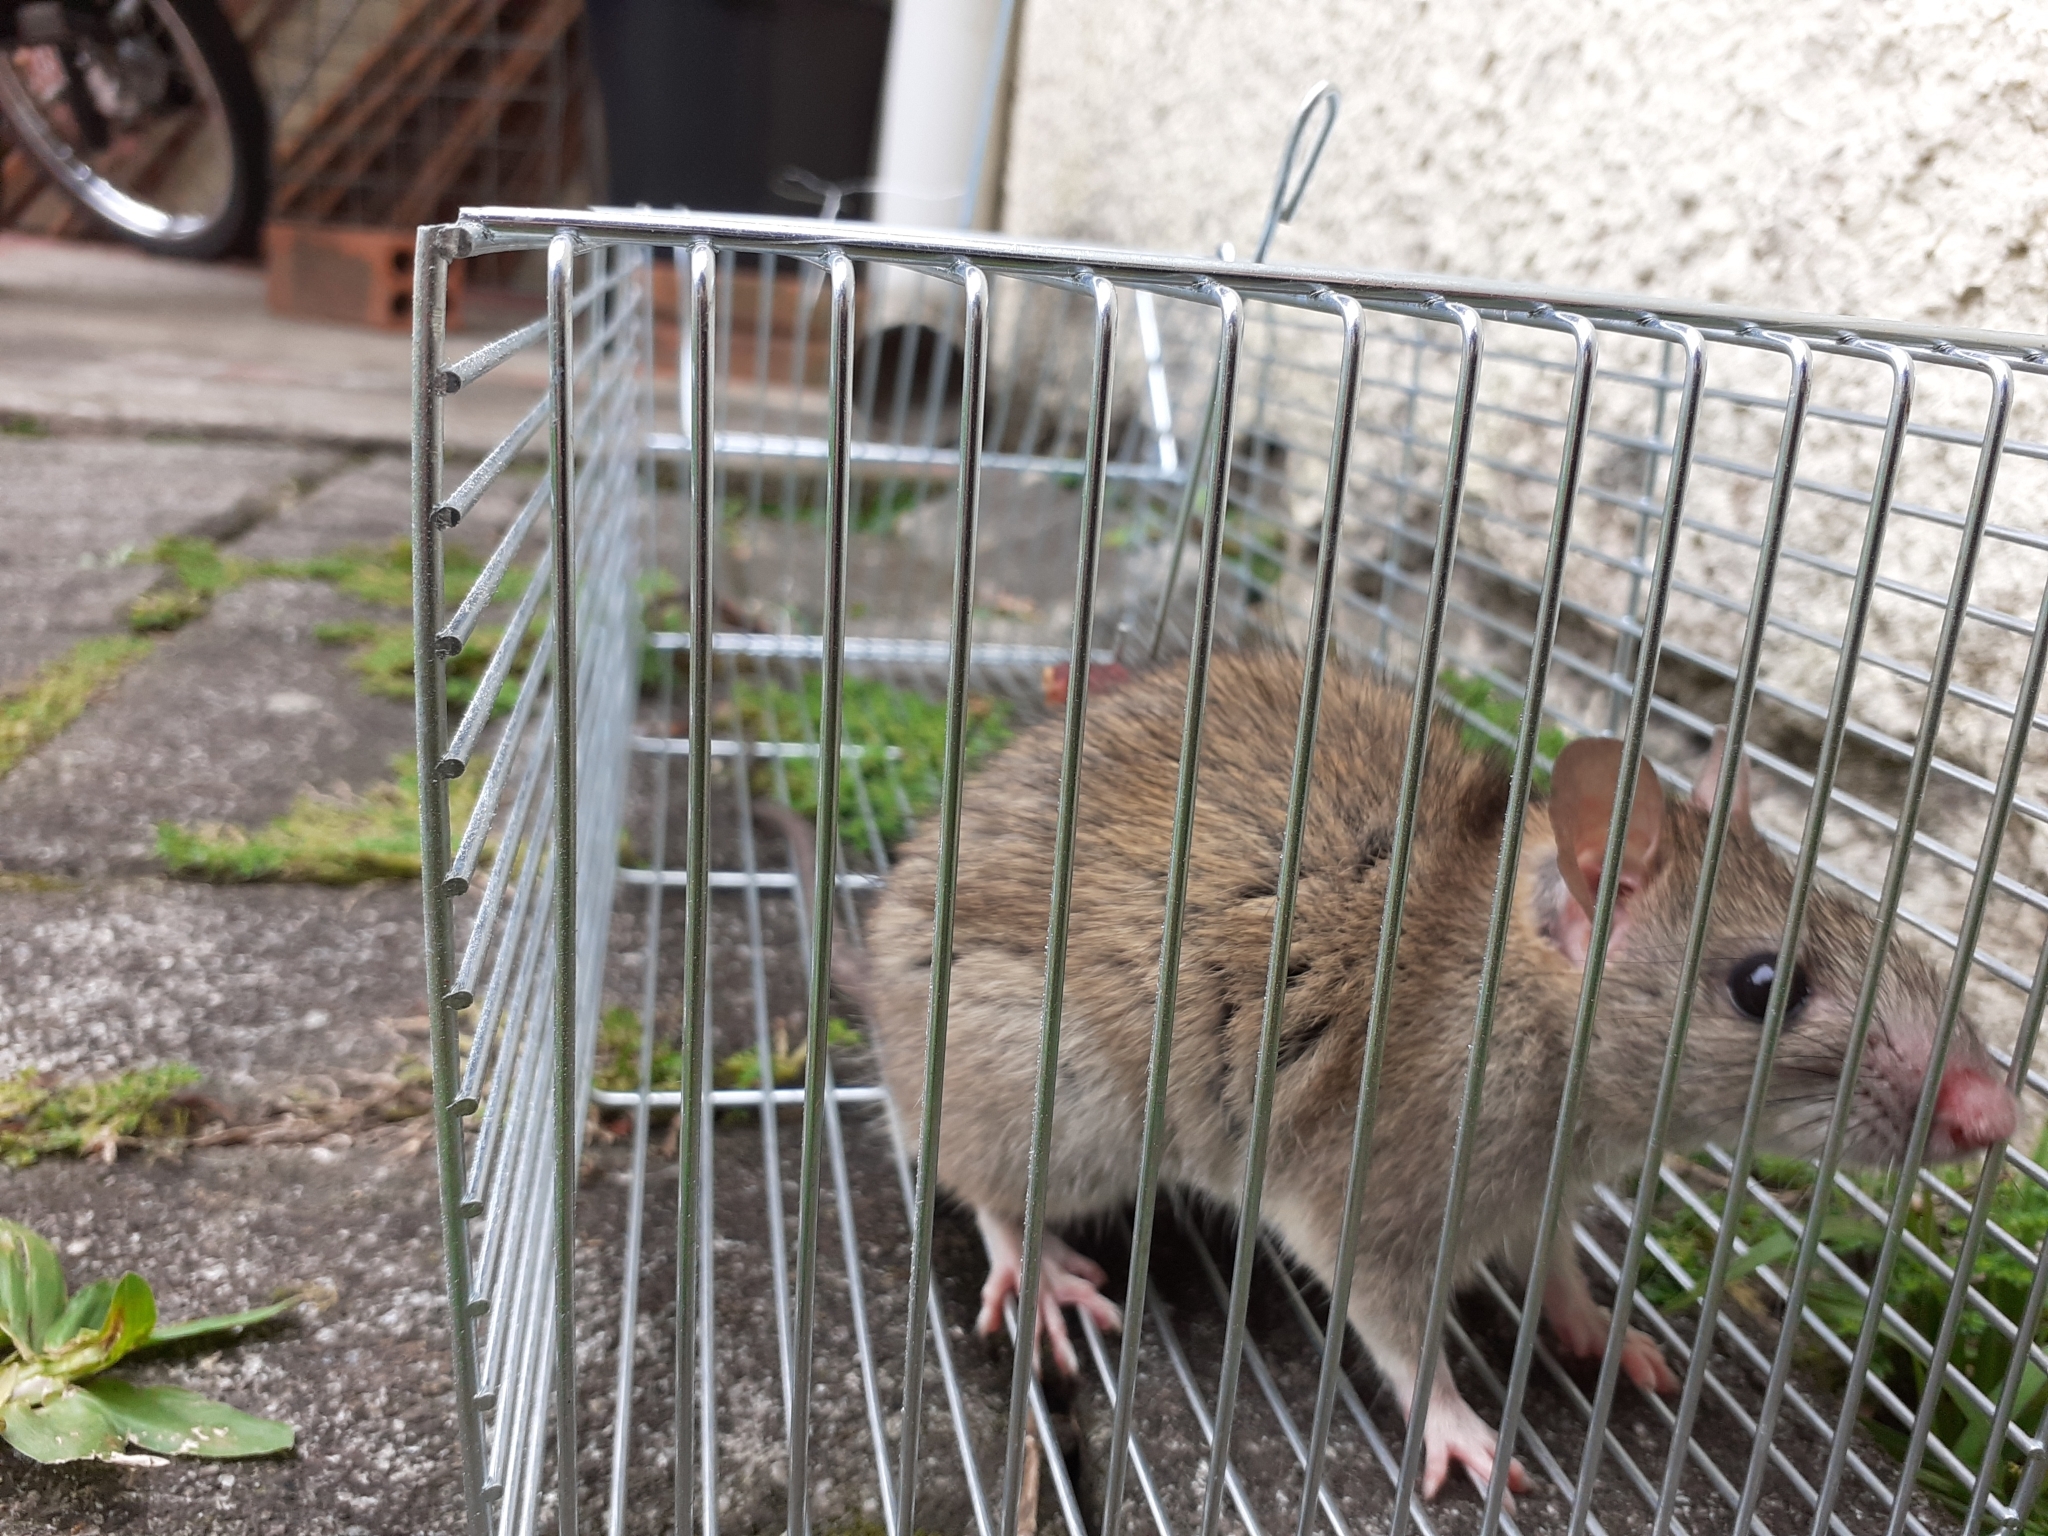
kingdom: Animalia
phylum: Chordata
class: Mammalia
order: Rodentia
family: Muridae
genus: Rattus
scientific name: Rattus rattus
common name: Black rat
